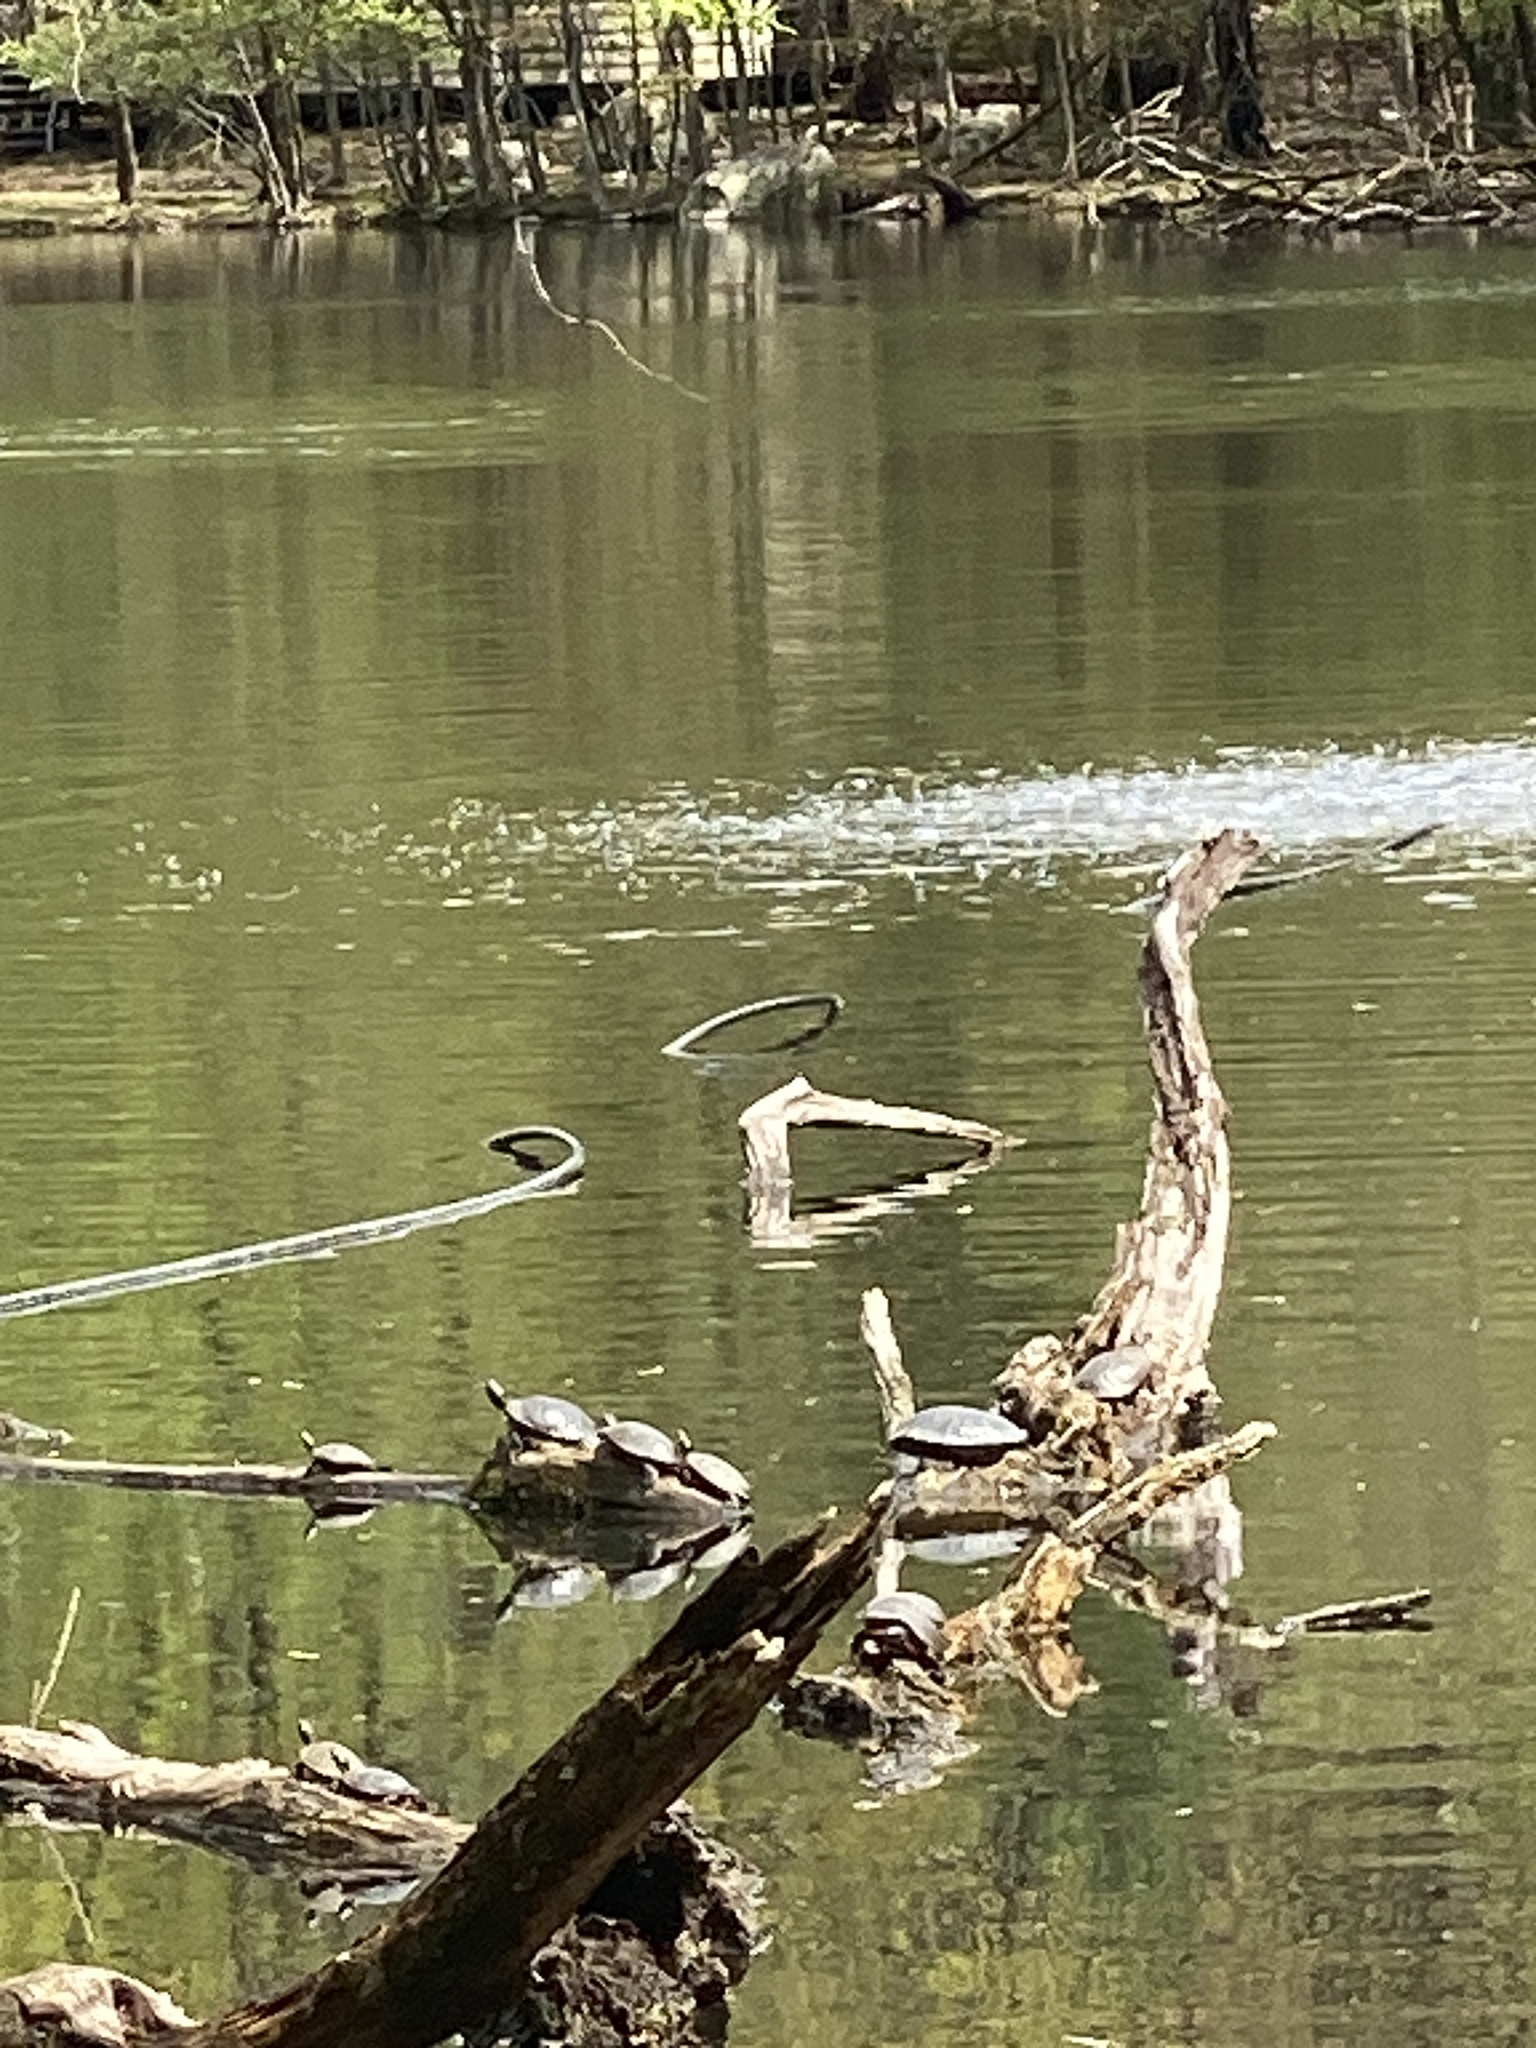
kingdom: Animalia
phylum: Chordata
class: Testudines
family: Emydidae
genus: Trachemys
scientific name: Trachemys scripta
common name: Slider
